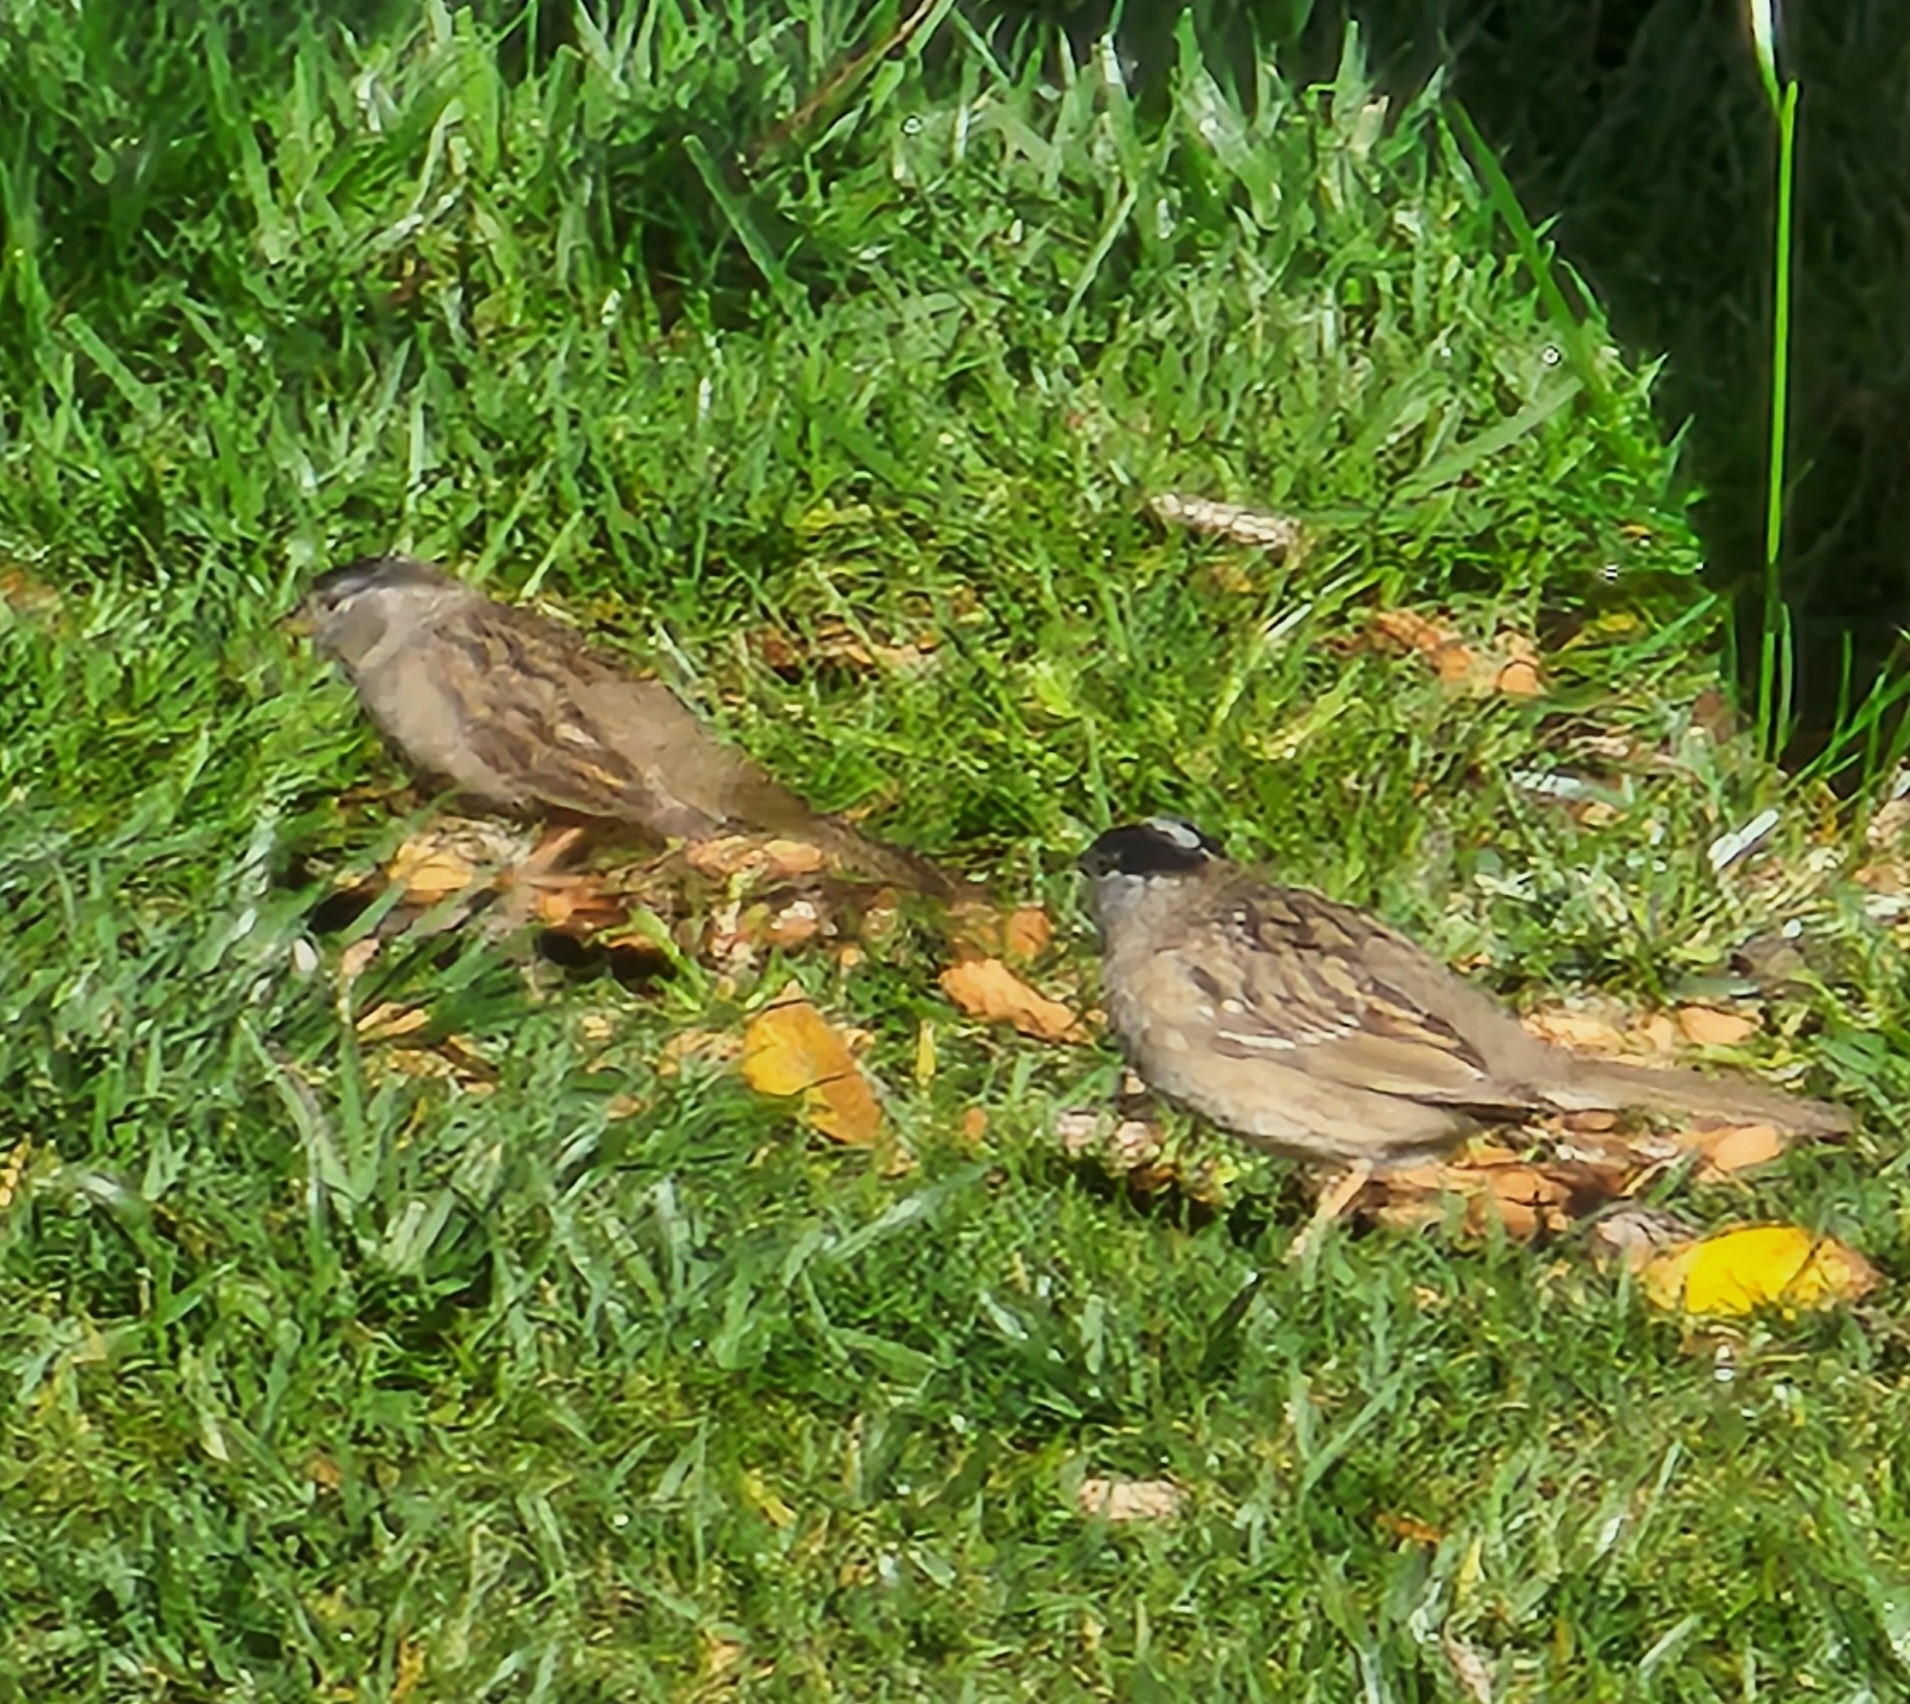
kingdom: Animalia
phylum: Chordata
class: Aves
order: Passeriformes
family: Passerellidae
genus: Zonotrichia
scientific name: Zonotrichia atricapilla
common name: Golden-crowned sparrow
